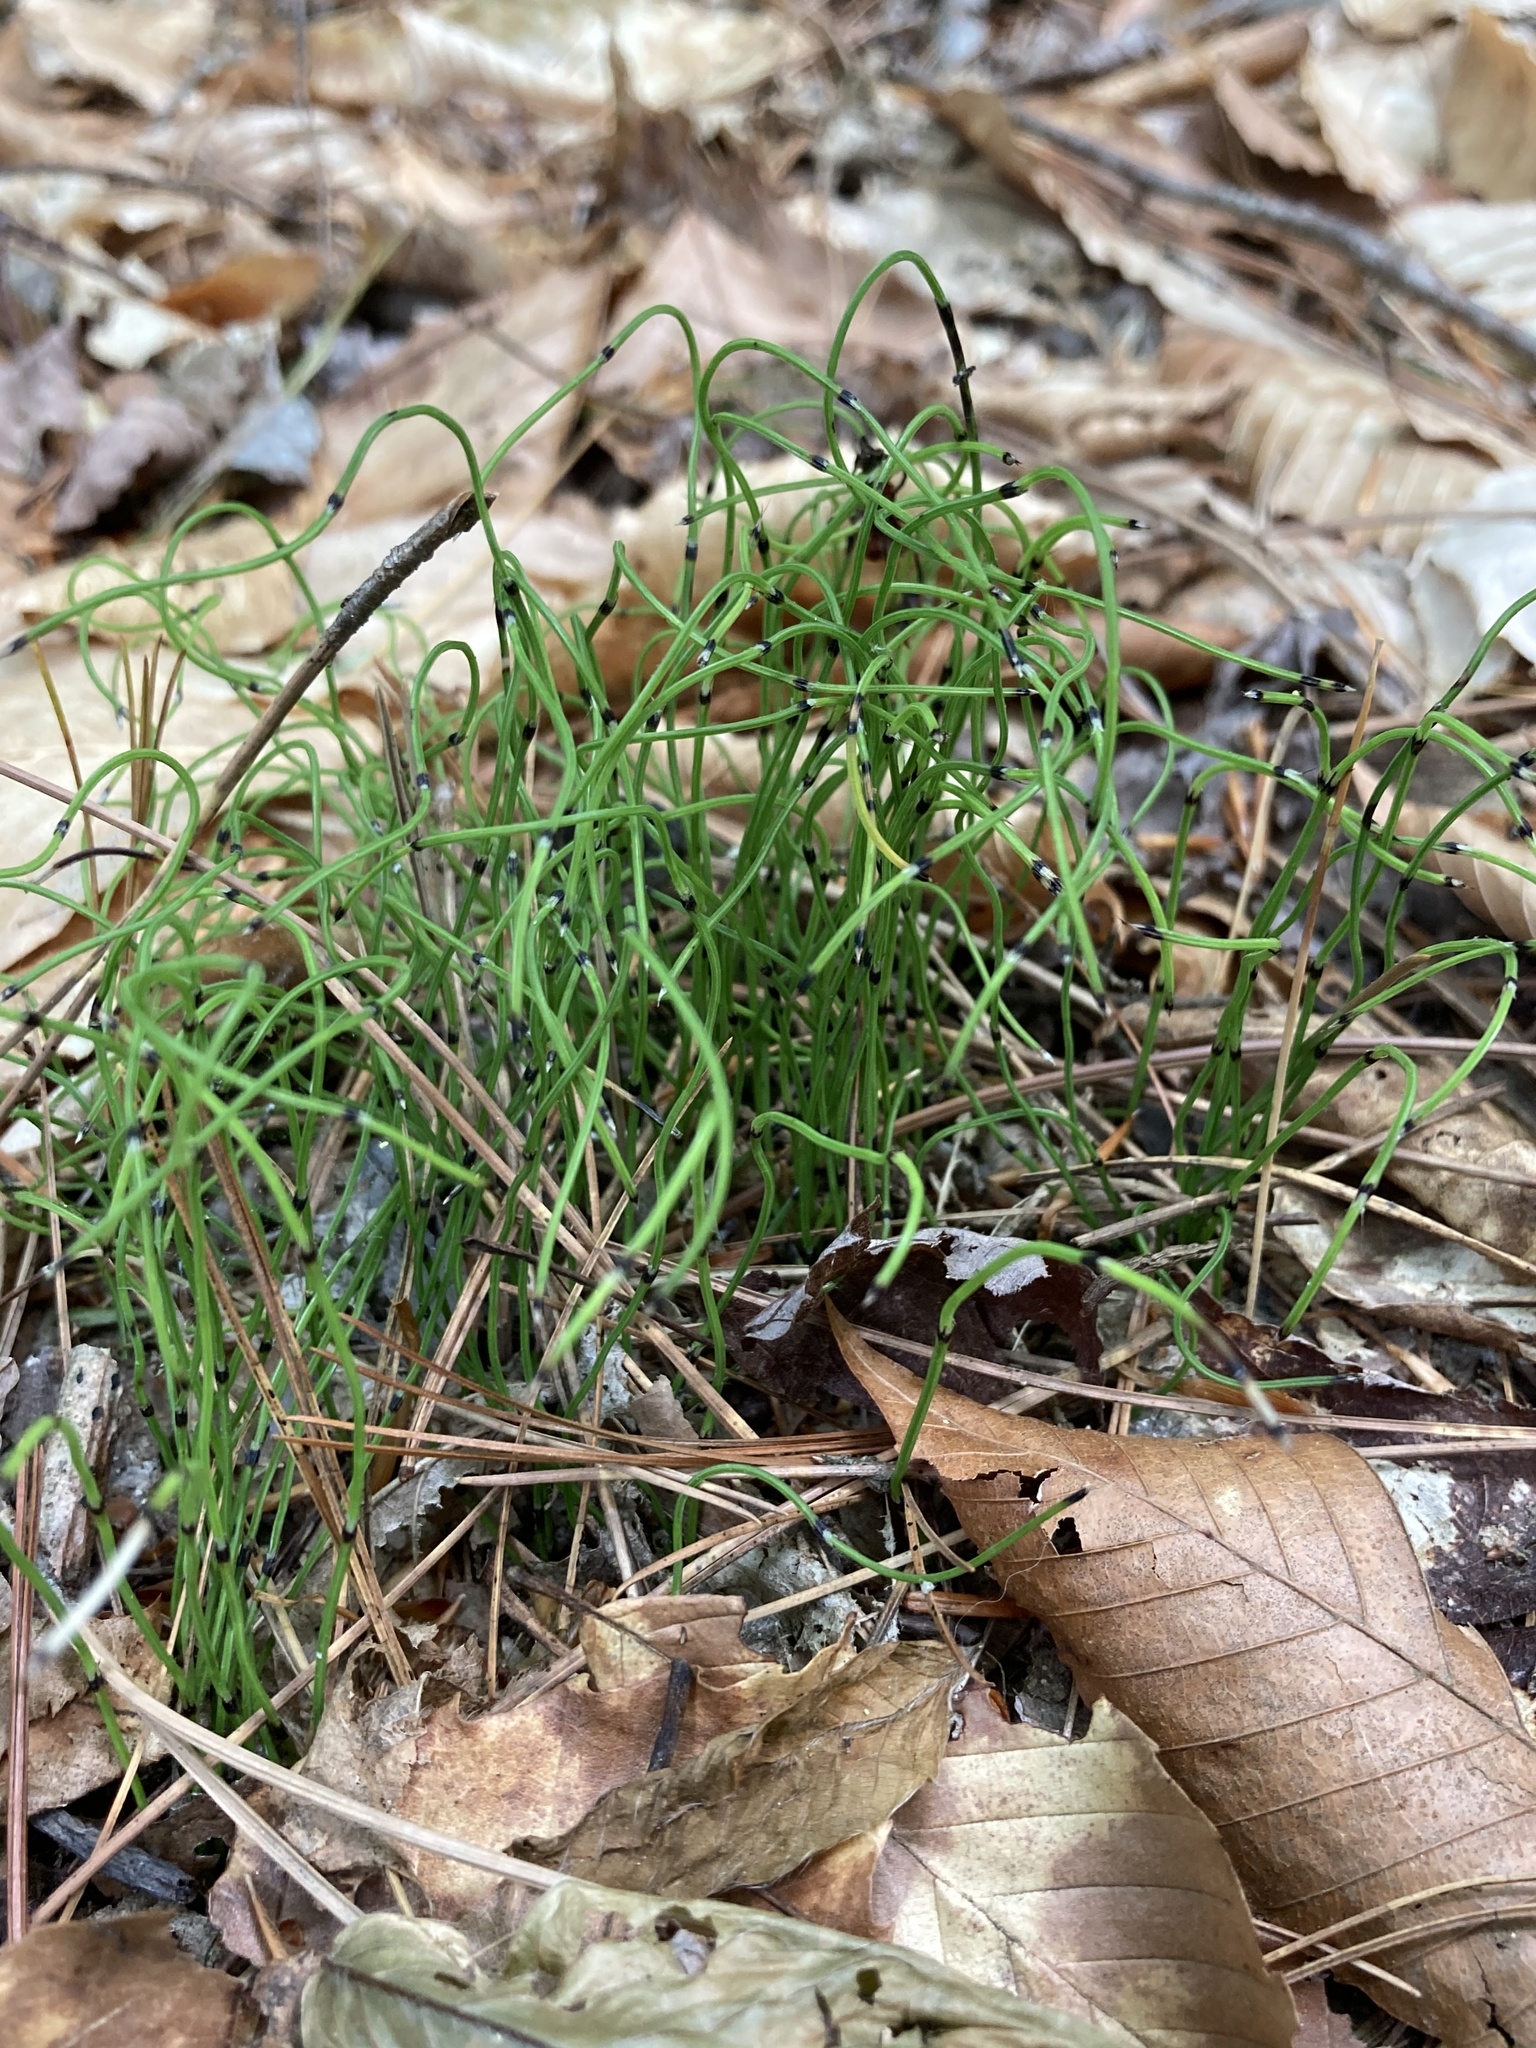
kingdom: Plantae
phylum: Tracheophyta
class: Polypodiopsida
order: Equisetales
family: Equisetaceae
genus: Equisetum
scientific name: Equisetum scirpoides
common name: Delicate horsetail
